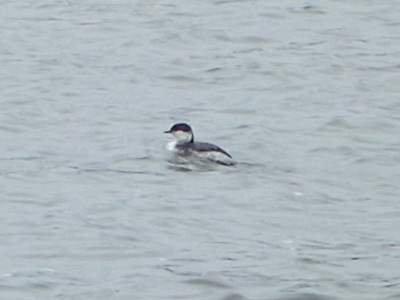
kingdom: Animalia
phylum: Chordata
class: Aves
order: Podicipediformes
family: Podicipedidae
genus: Podiceps
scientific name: Podiceps auritus
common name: Horned grebe
